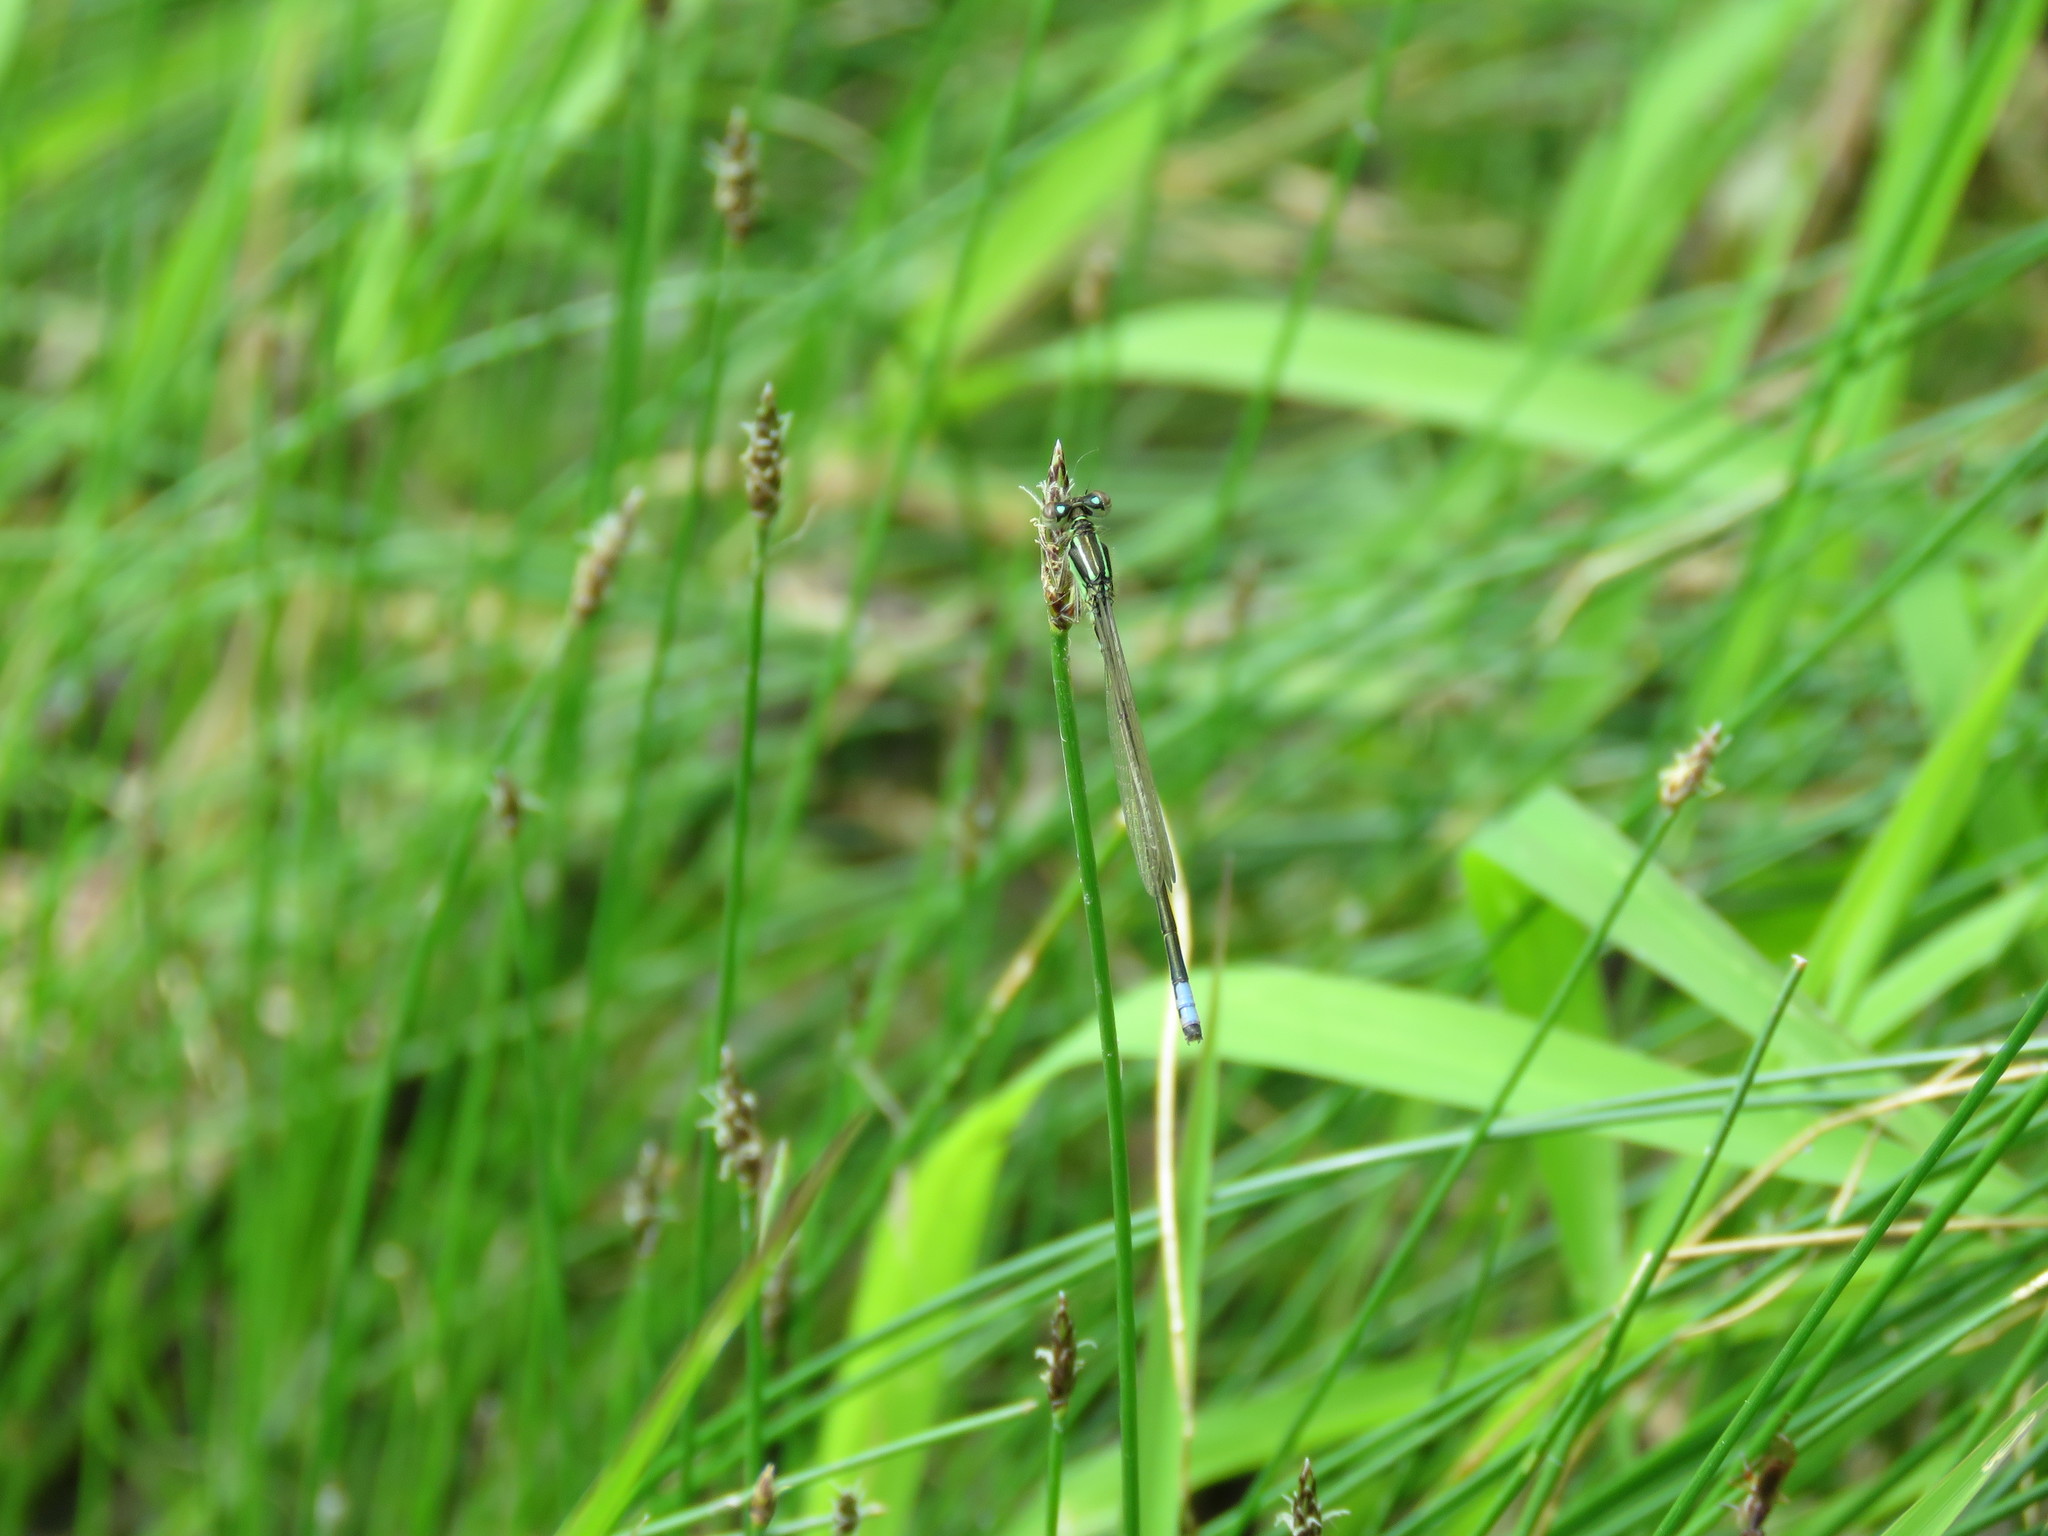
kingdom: Animalia
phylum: Arthropoda
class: Insecta
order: Odonata
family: Coenagrionidae
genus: Ischnura
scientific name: Ischnura verticalis
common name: Eastern forktail
